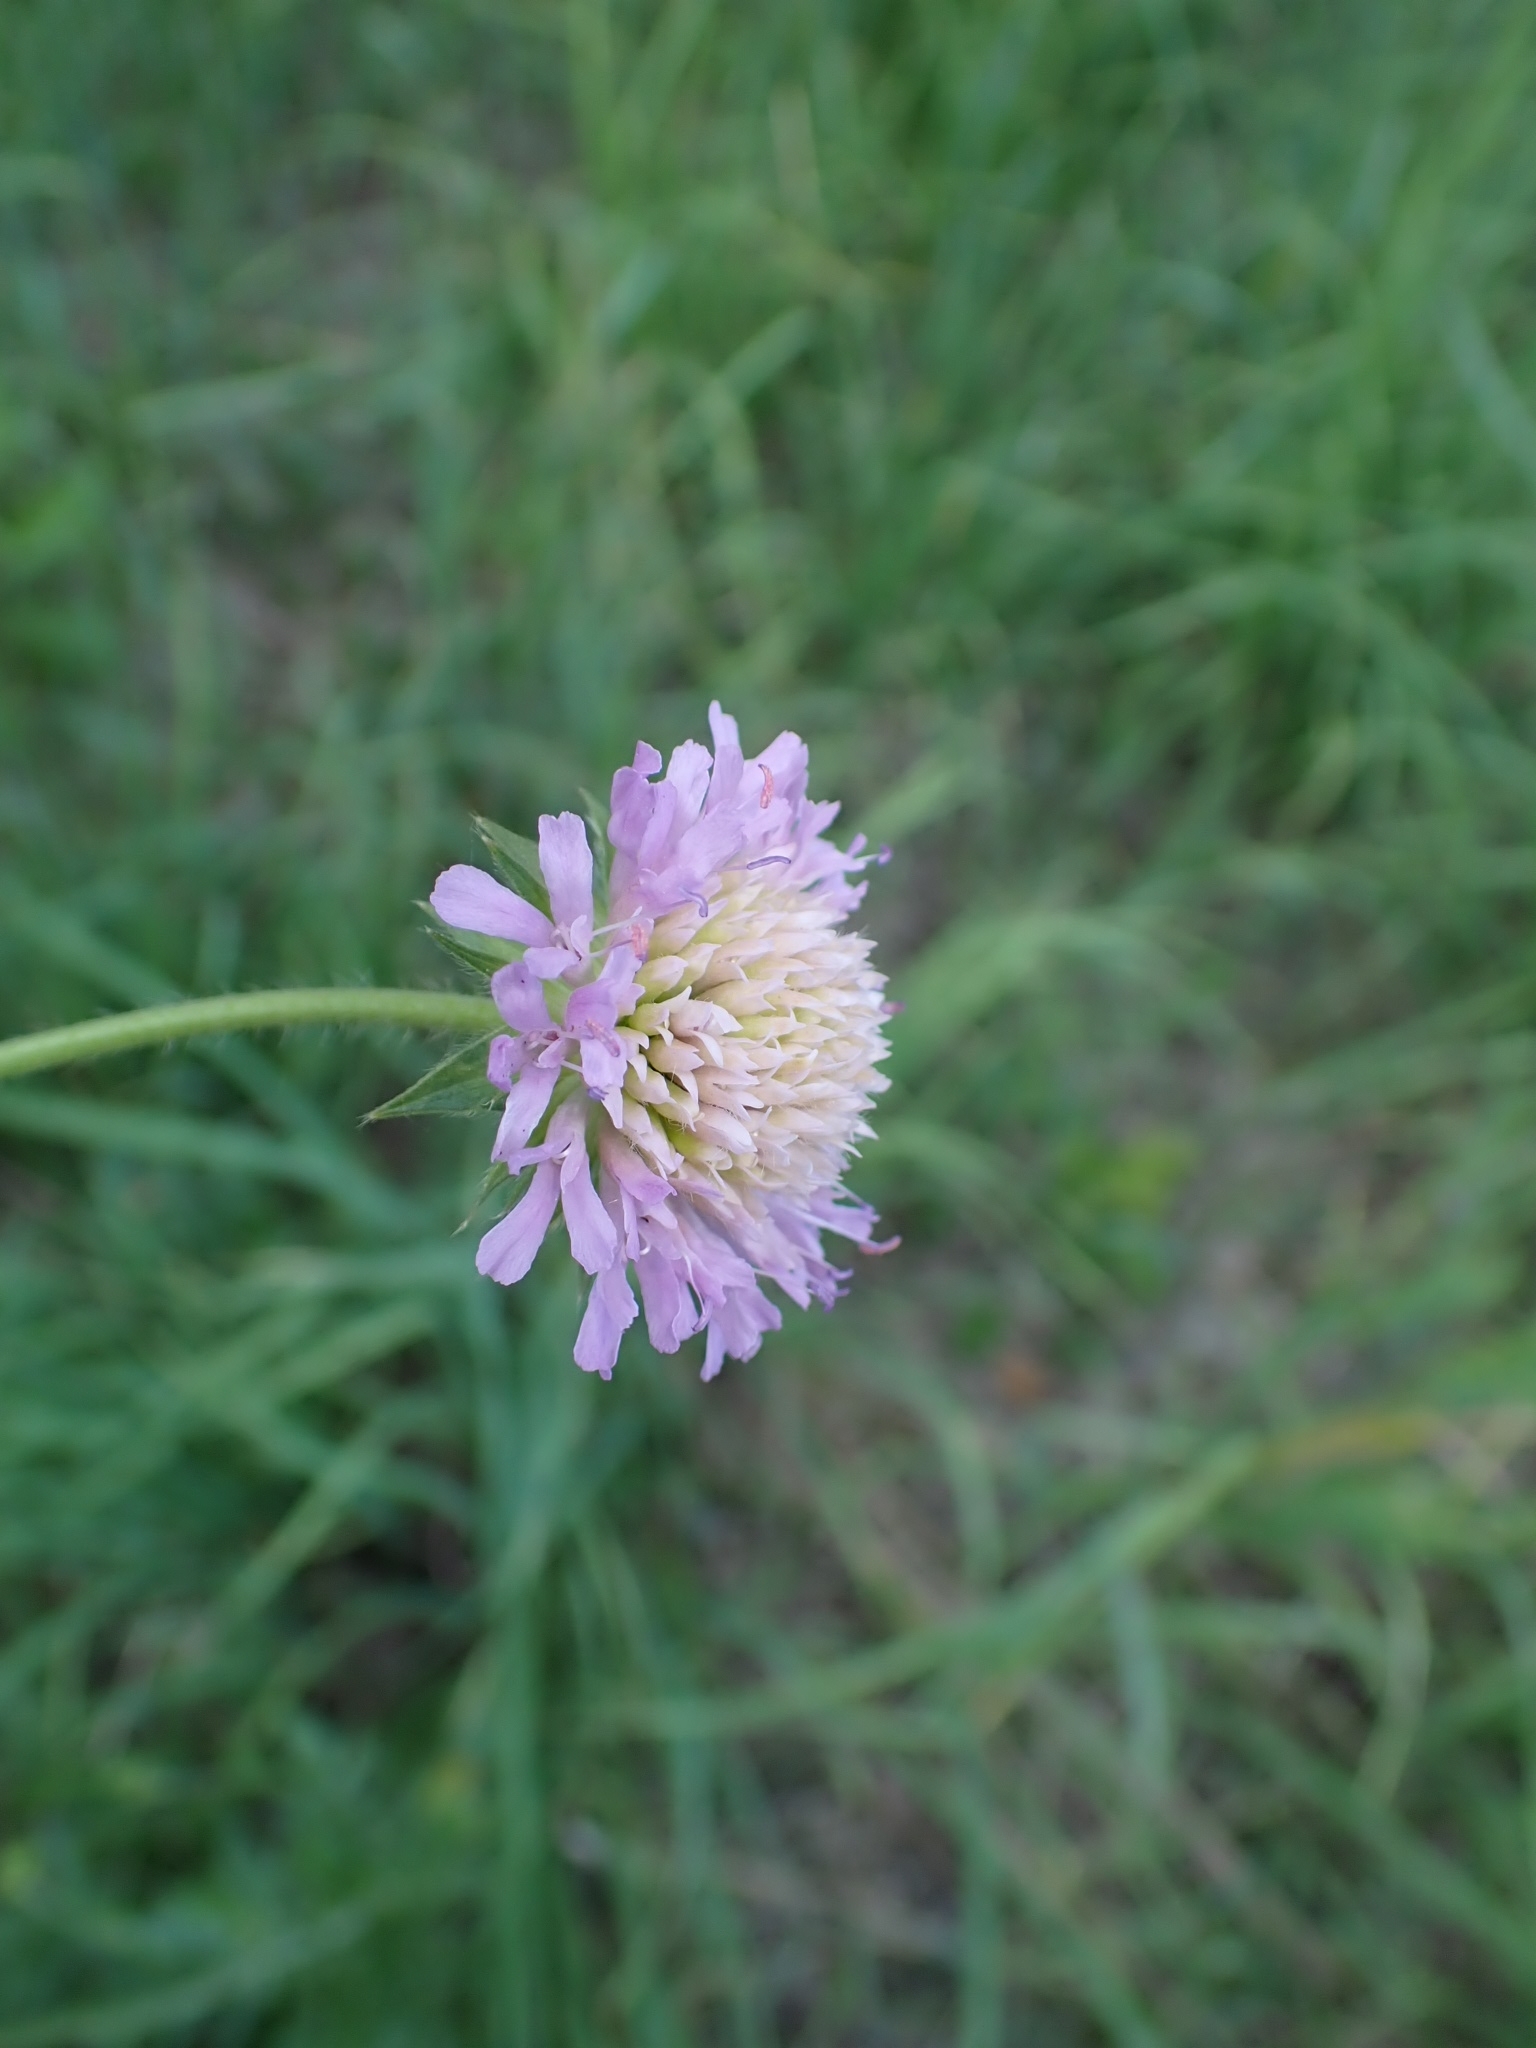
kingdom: Plantae
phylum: Tracheophyta
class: Magnoliopsida
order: Dipsacales
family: Caprifoliaceae
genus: Knautia
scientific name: Knautia arvensis
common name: Field scabiosa
